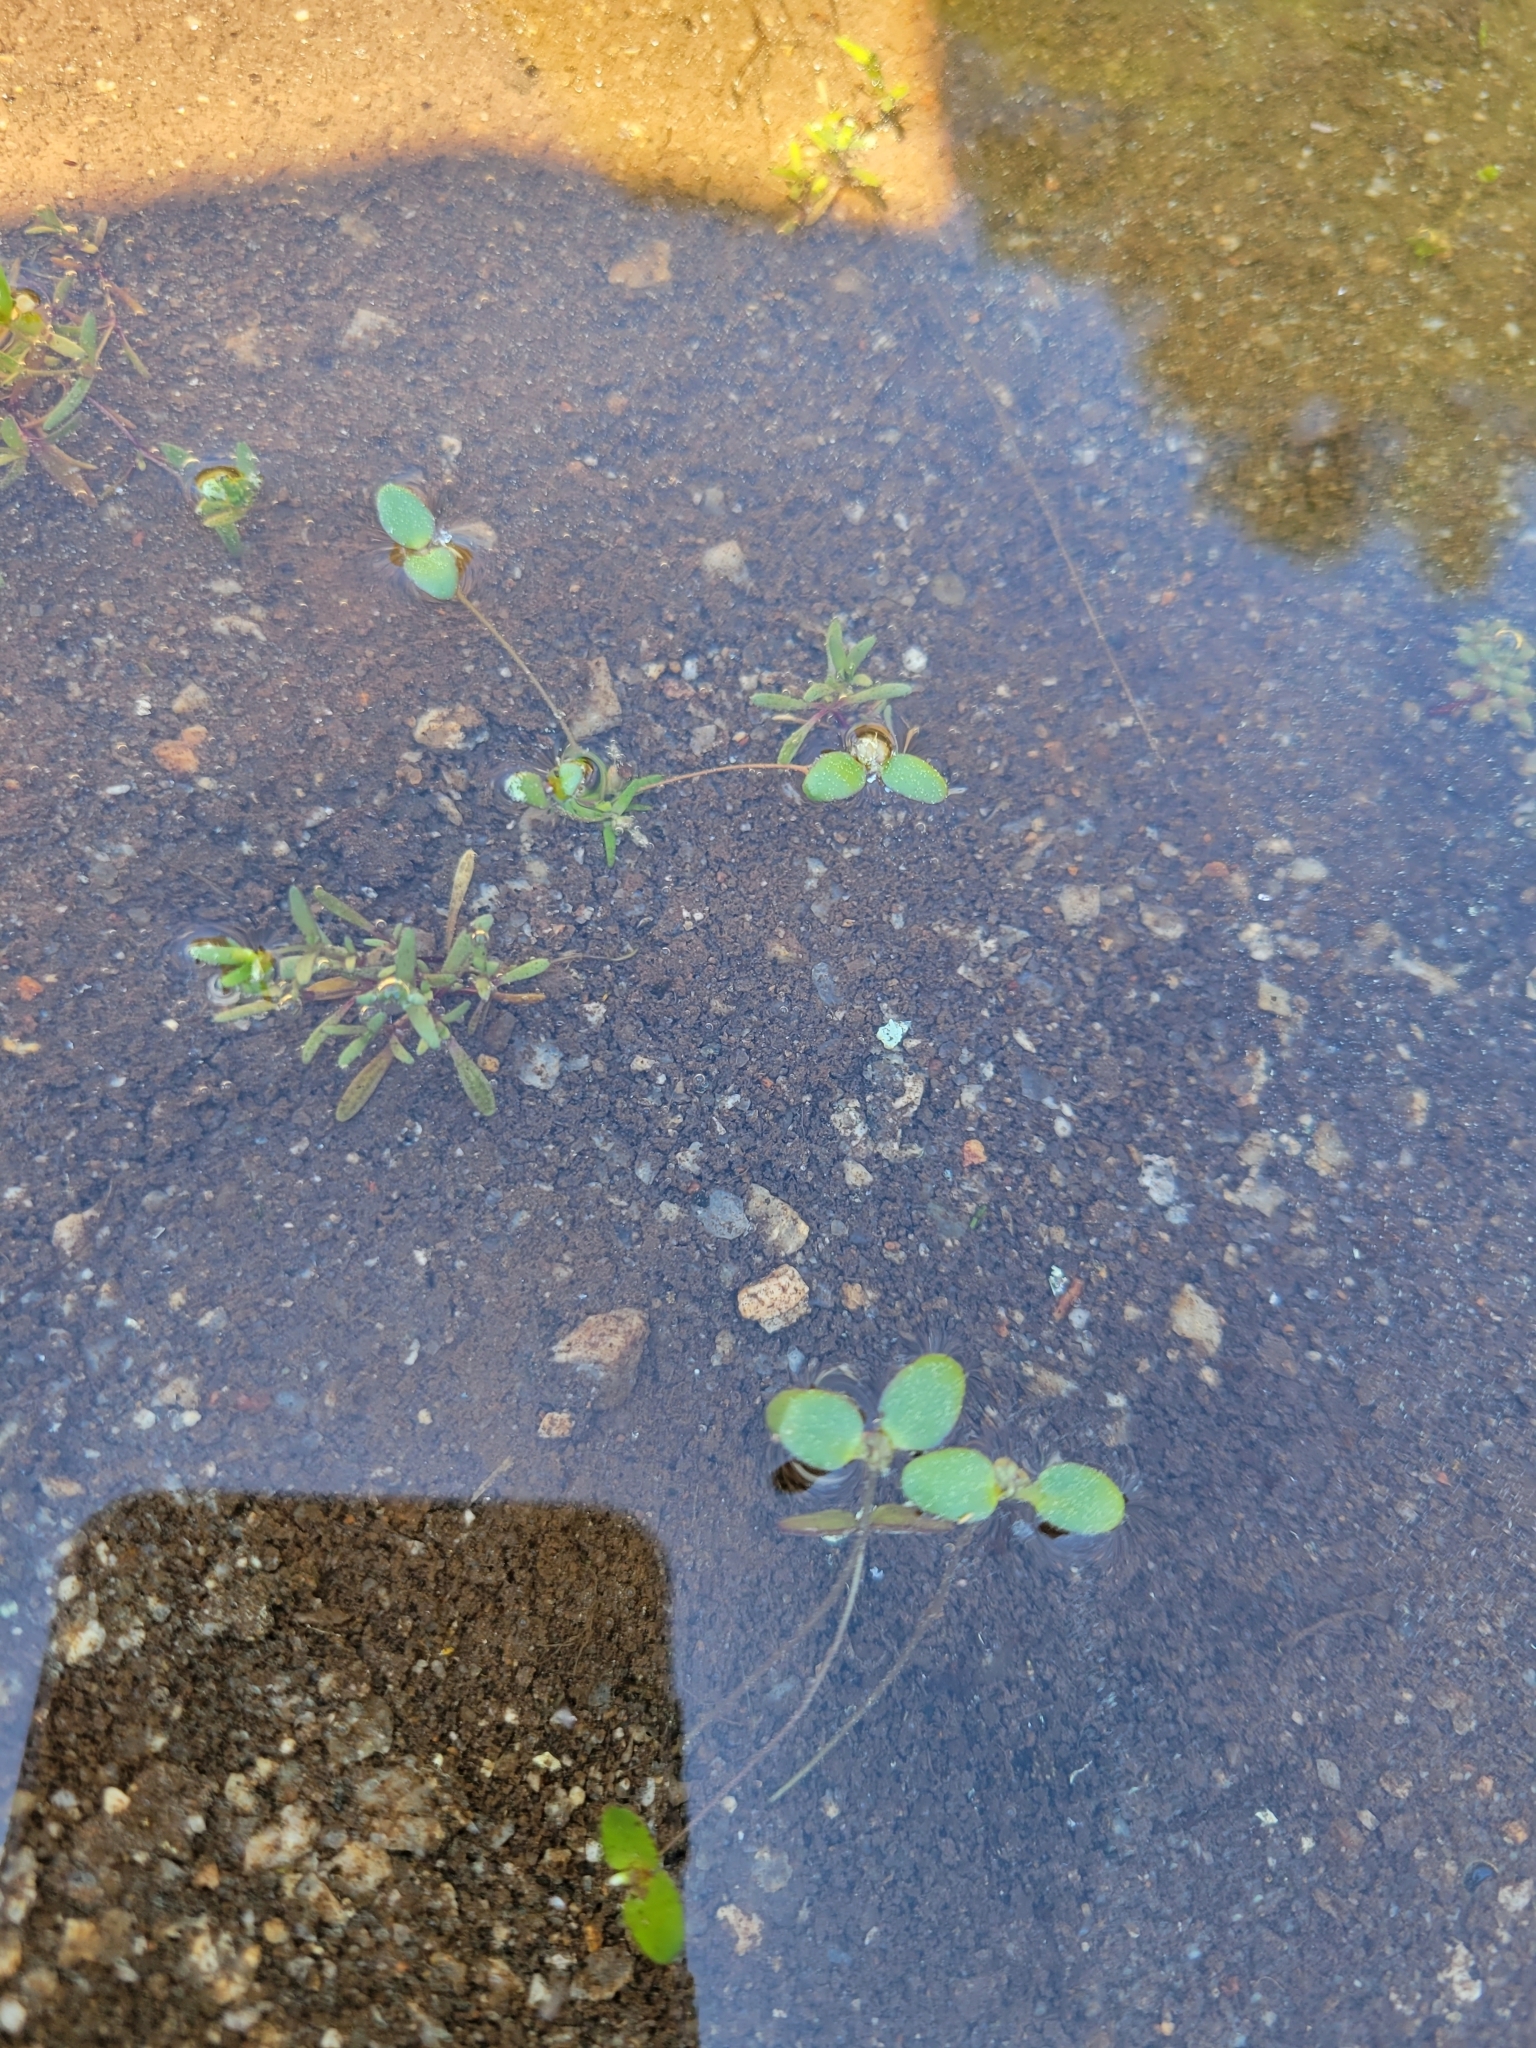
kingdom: Plantae
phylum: Tracheophyta
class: Magnoliopsida
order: Lamiales
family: Plantaginaceae
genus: Gratiola
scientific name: Gratiola amphiantha
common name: Little amphianthus
